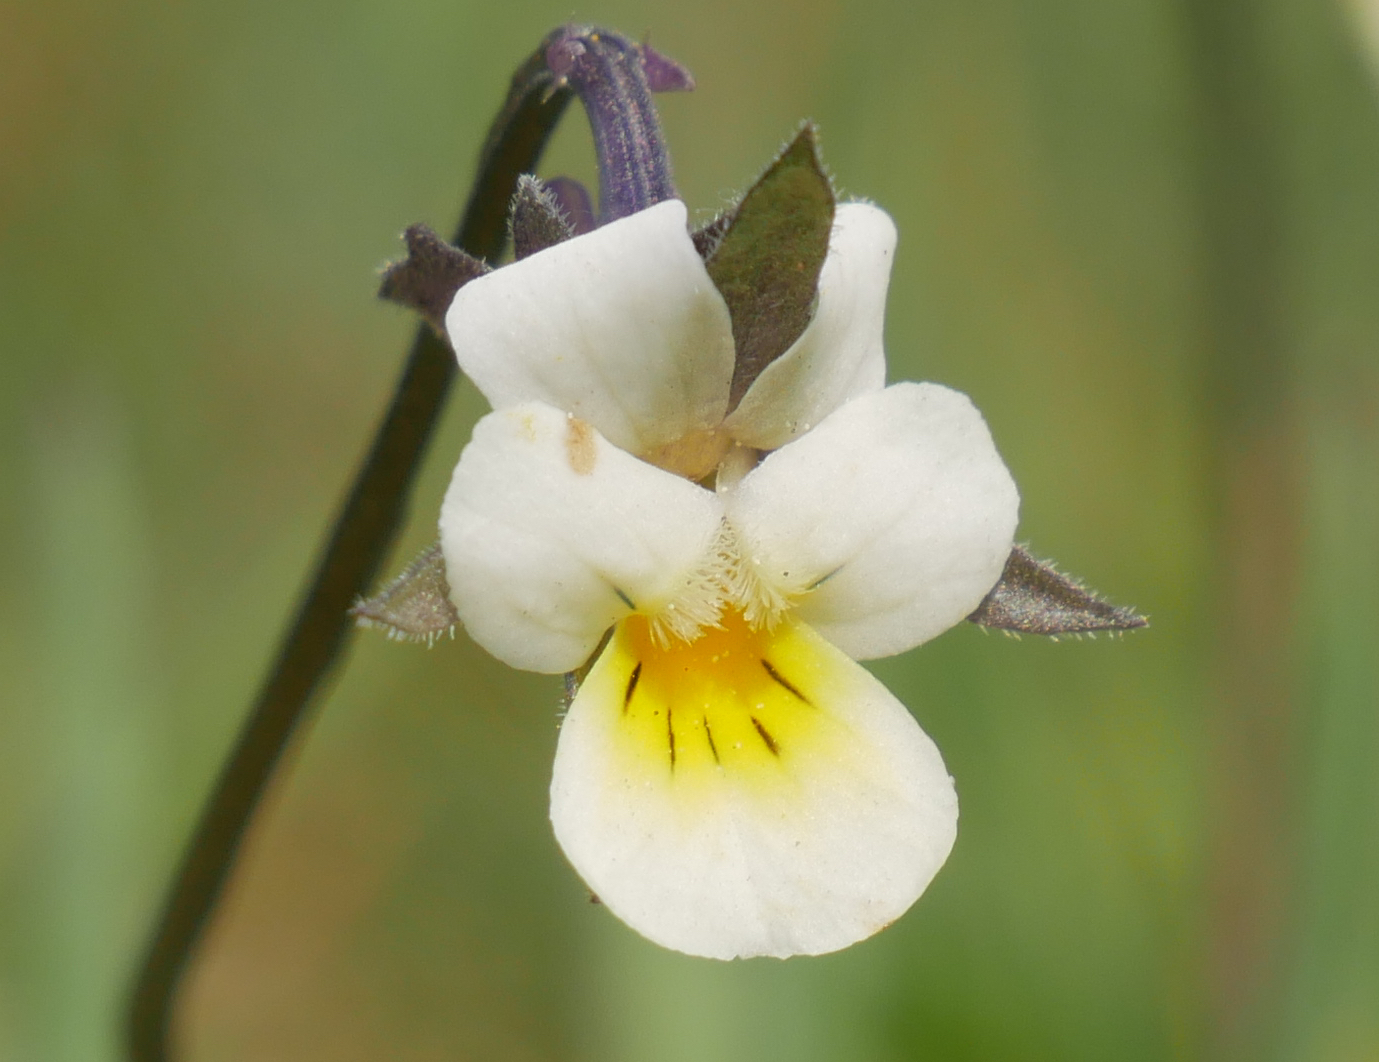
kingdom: Plantae
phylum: Tracheophyta
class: Magnoliopsida
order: Malpighiales
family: Violaceae
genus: Viola
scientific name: Viola arvensis
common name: Field pansy
